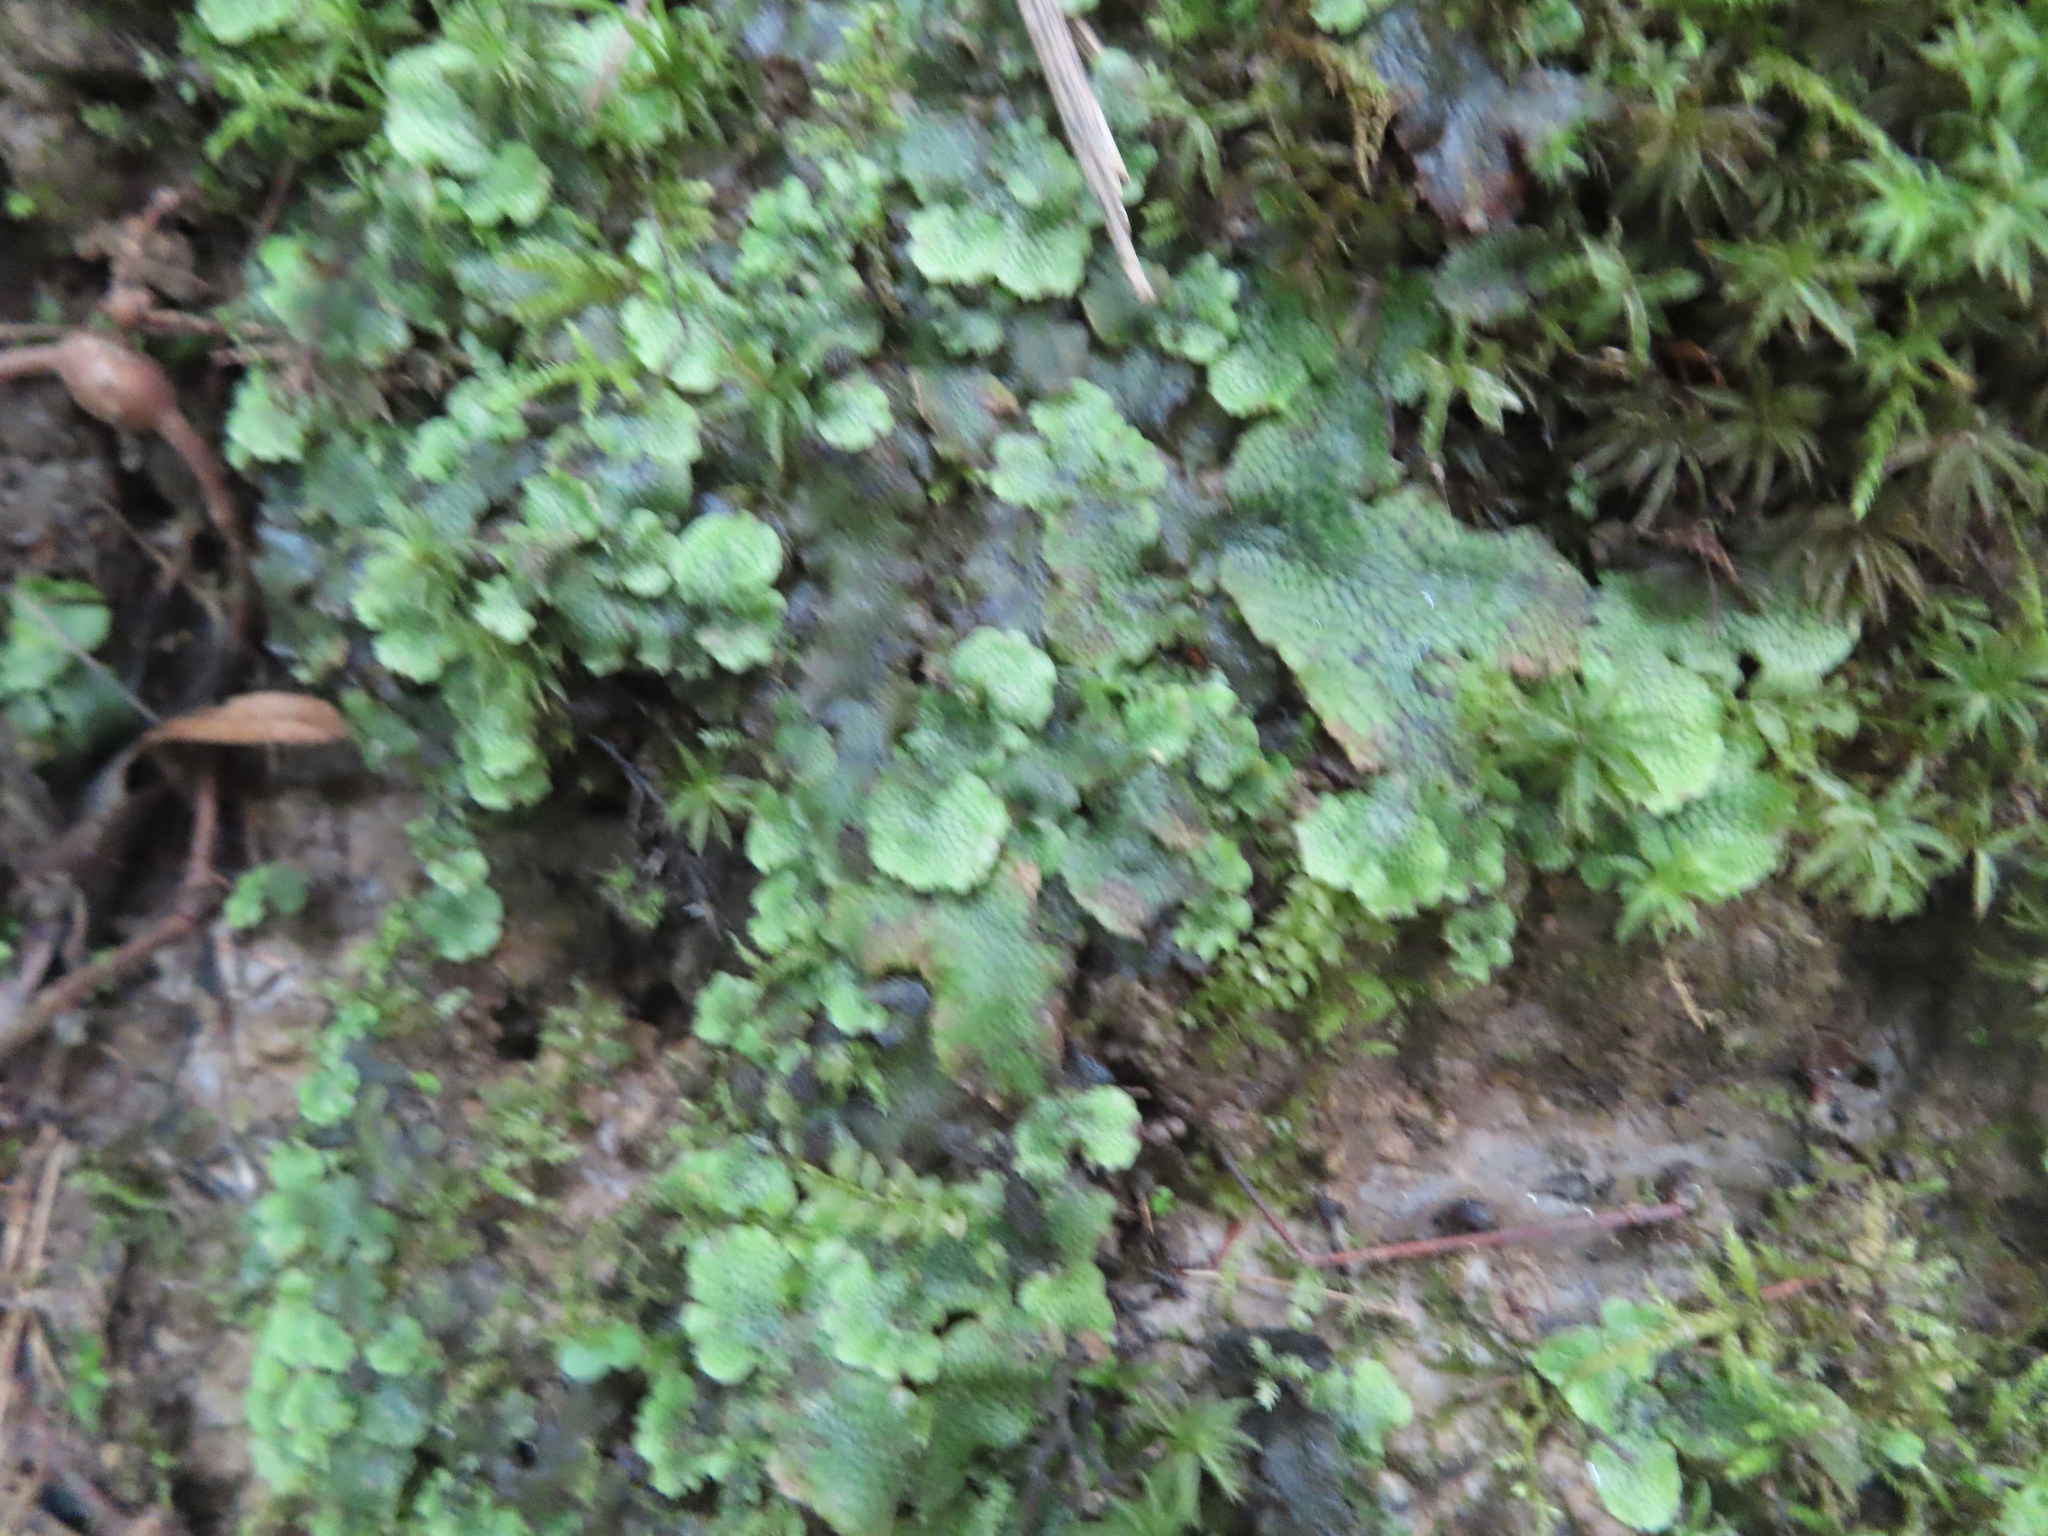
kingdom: Plantae
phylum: Marchantiophyta
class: Marchantiopsida
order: Marchantiales
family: Conocephalaceae
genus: Conocephalum
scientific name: Conocephalum salebrosum
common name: Cat-tongue liverwort
